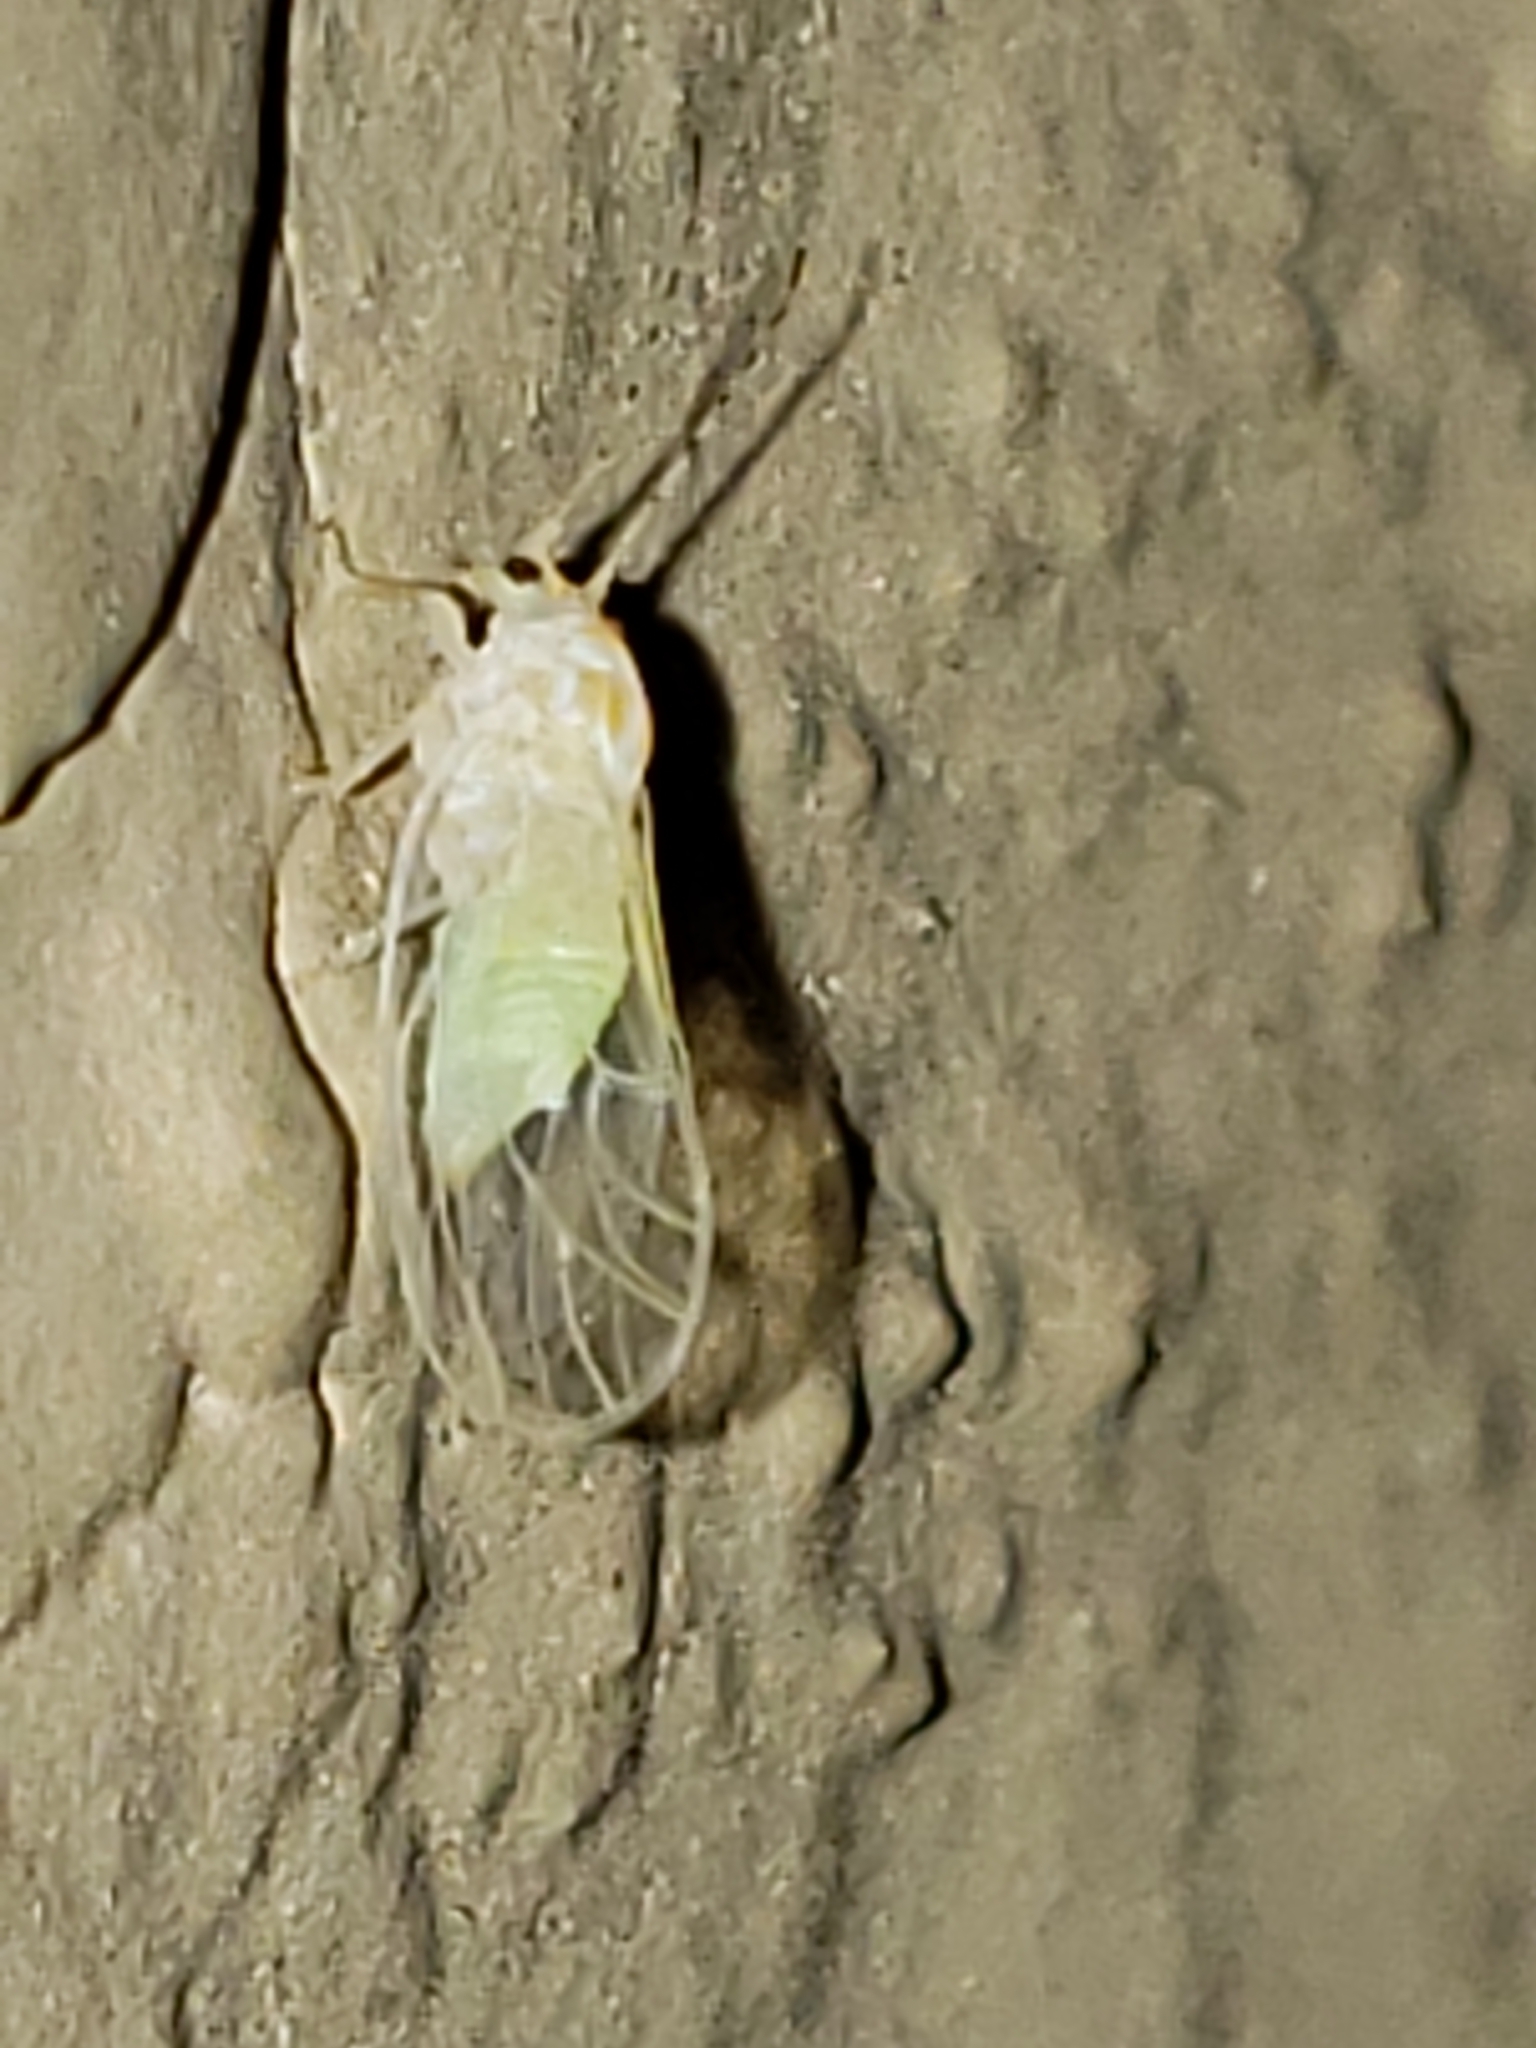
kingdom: Animalia
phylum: Arthropoda
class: Insecta
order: Hemiptera
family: Psyllidae
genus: Cacopsylla
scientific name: Cacopsylla annulata
